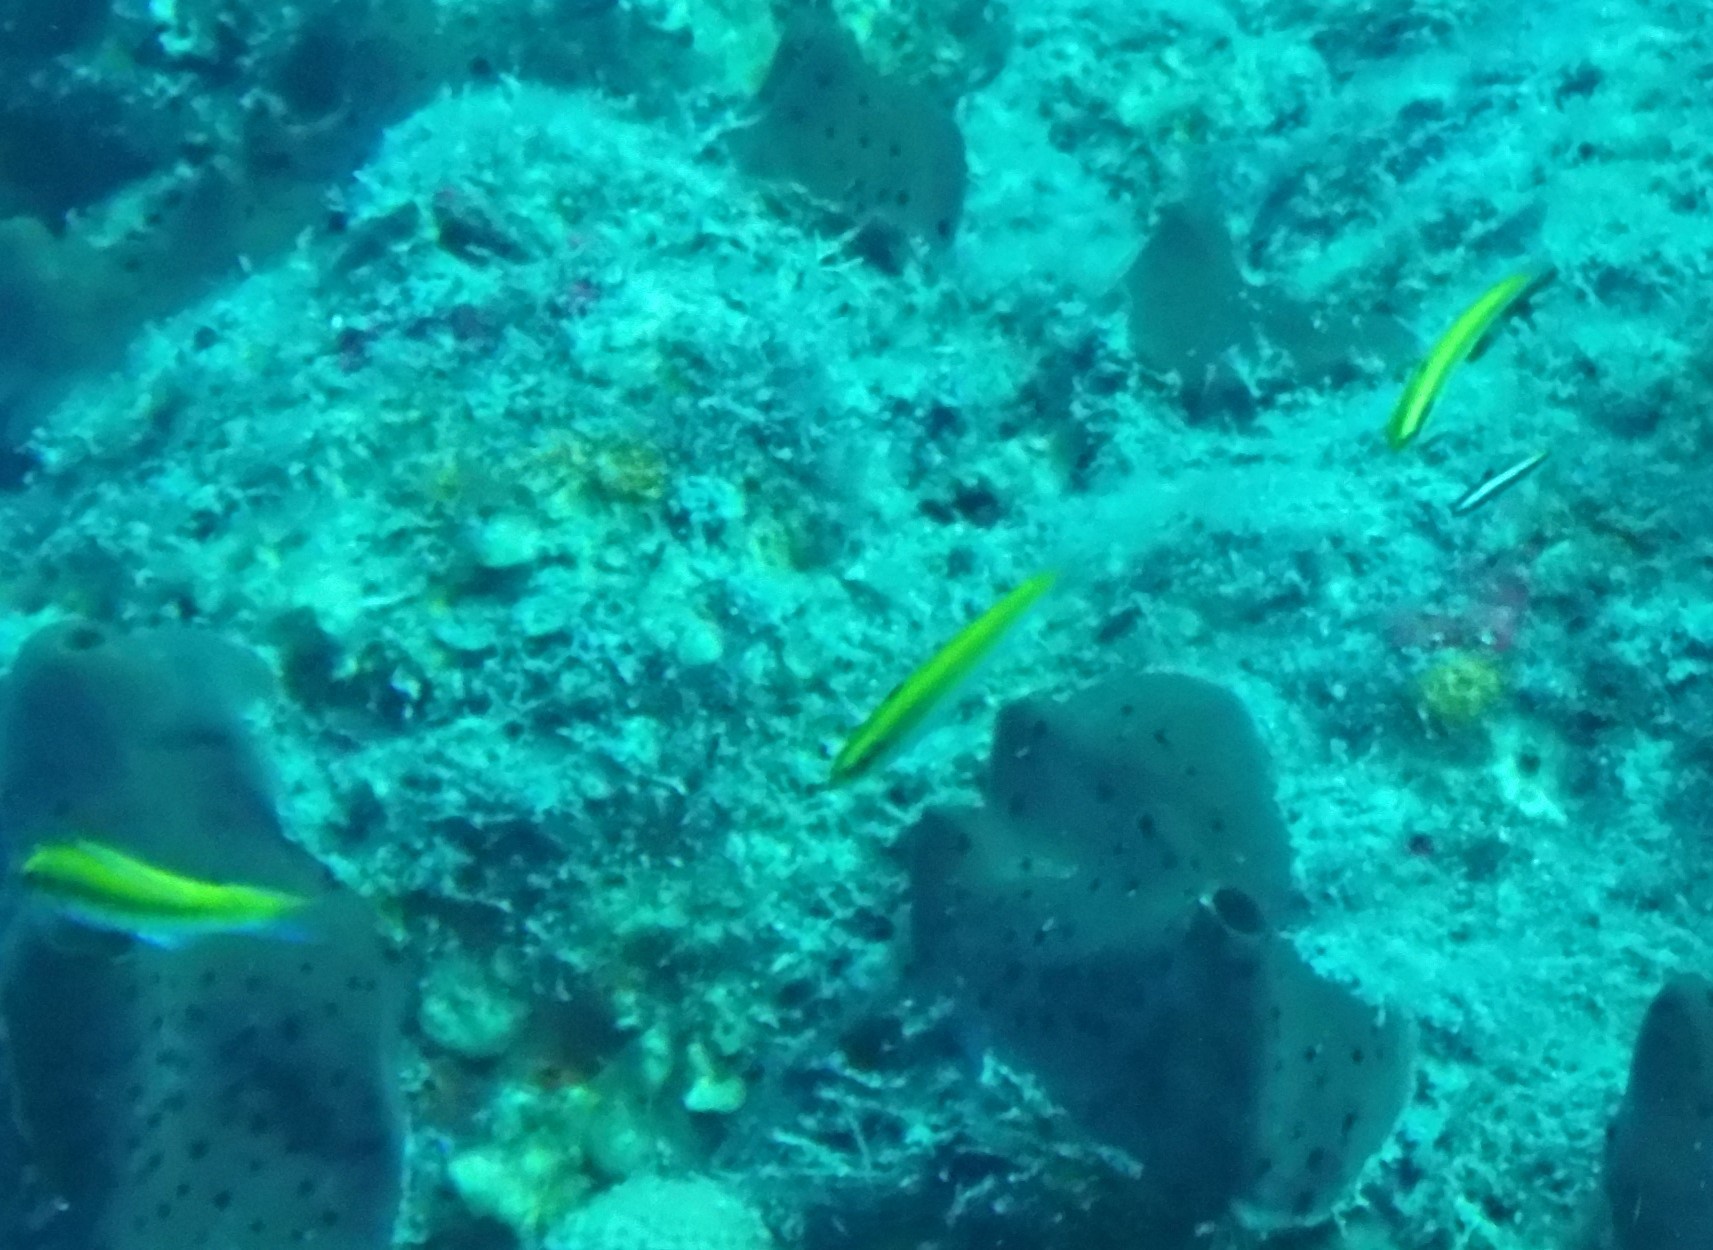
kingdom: Animalia
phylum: Chordata
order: Perciformes
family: Labridae
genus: Thalassoma
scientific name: Thalassoma bifasciatum
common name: Bluehead wrasse
